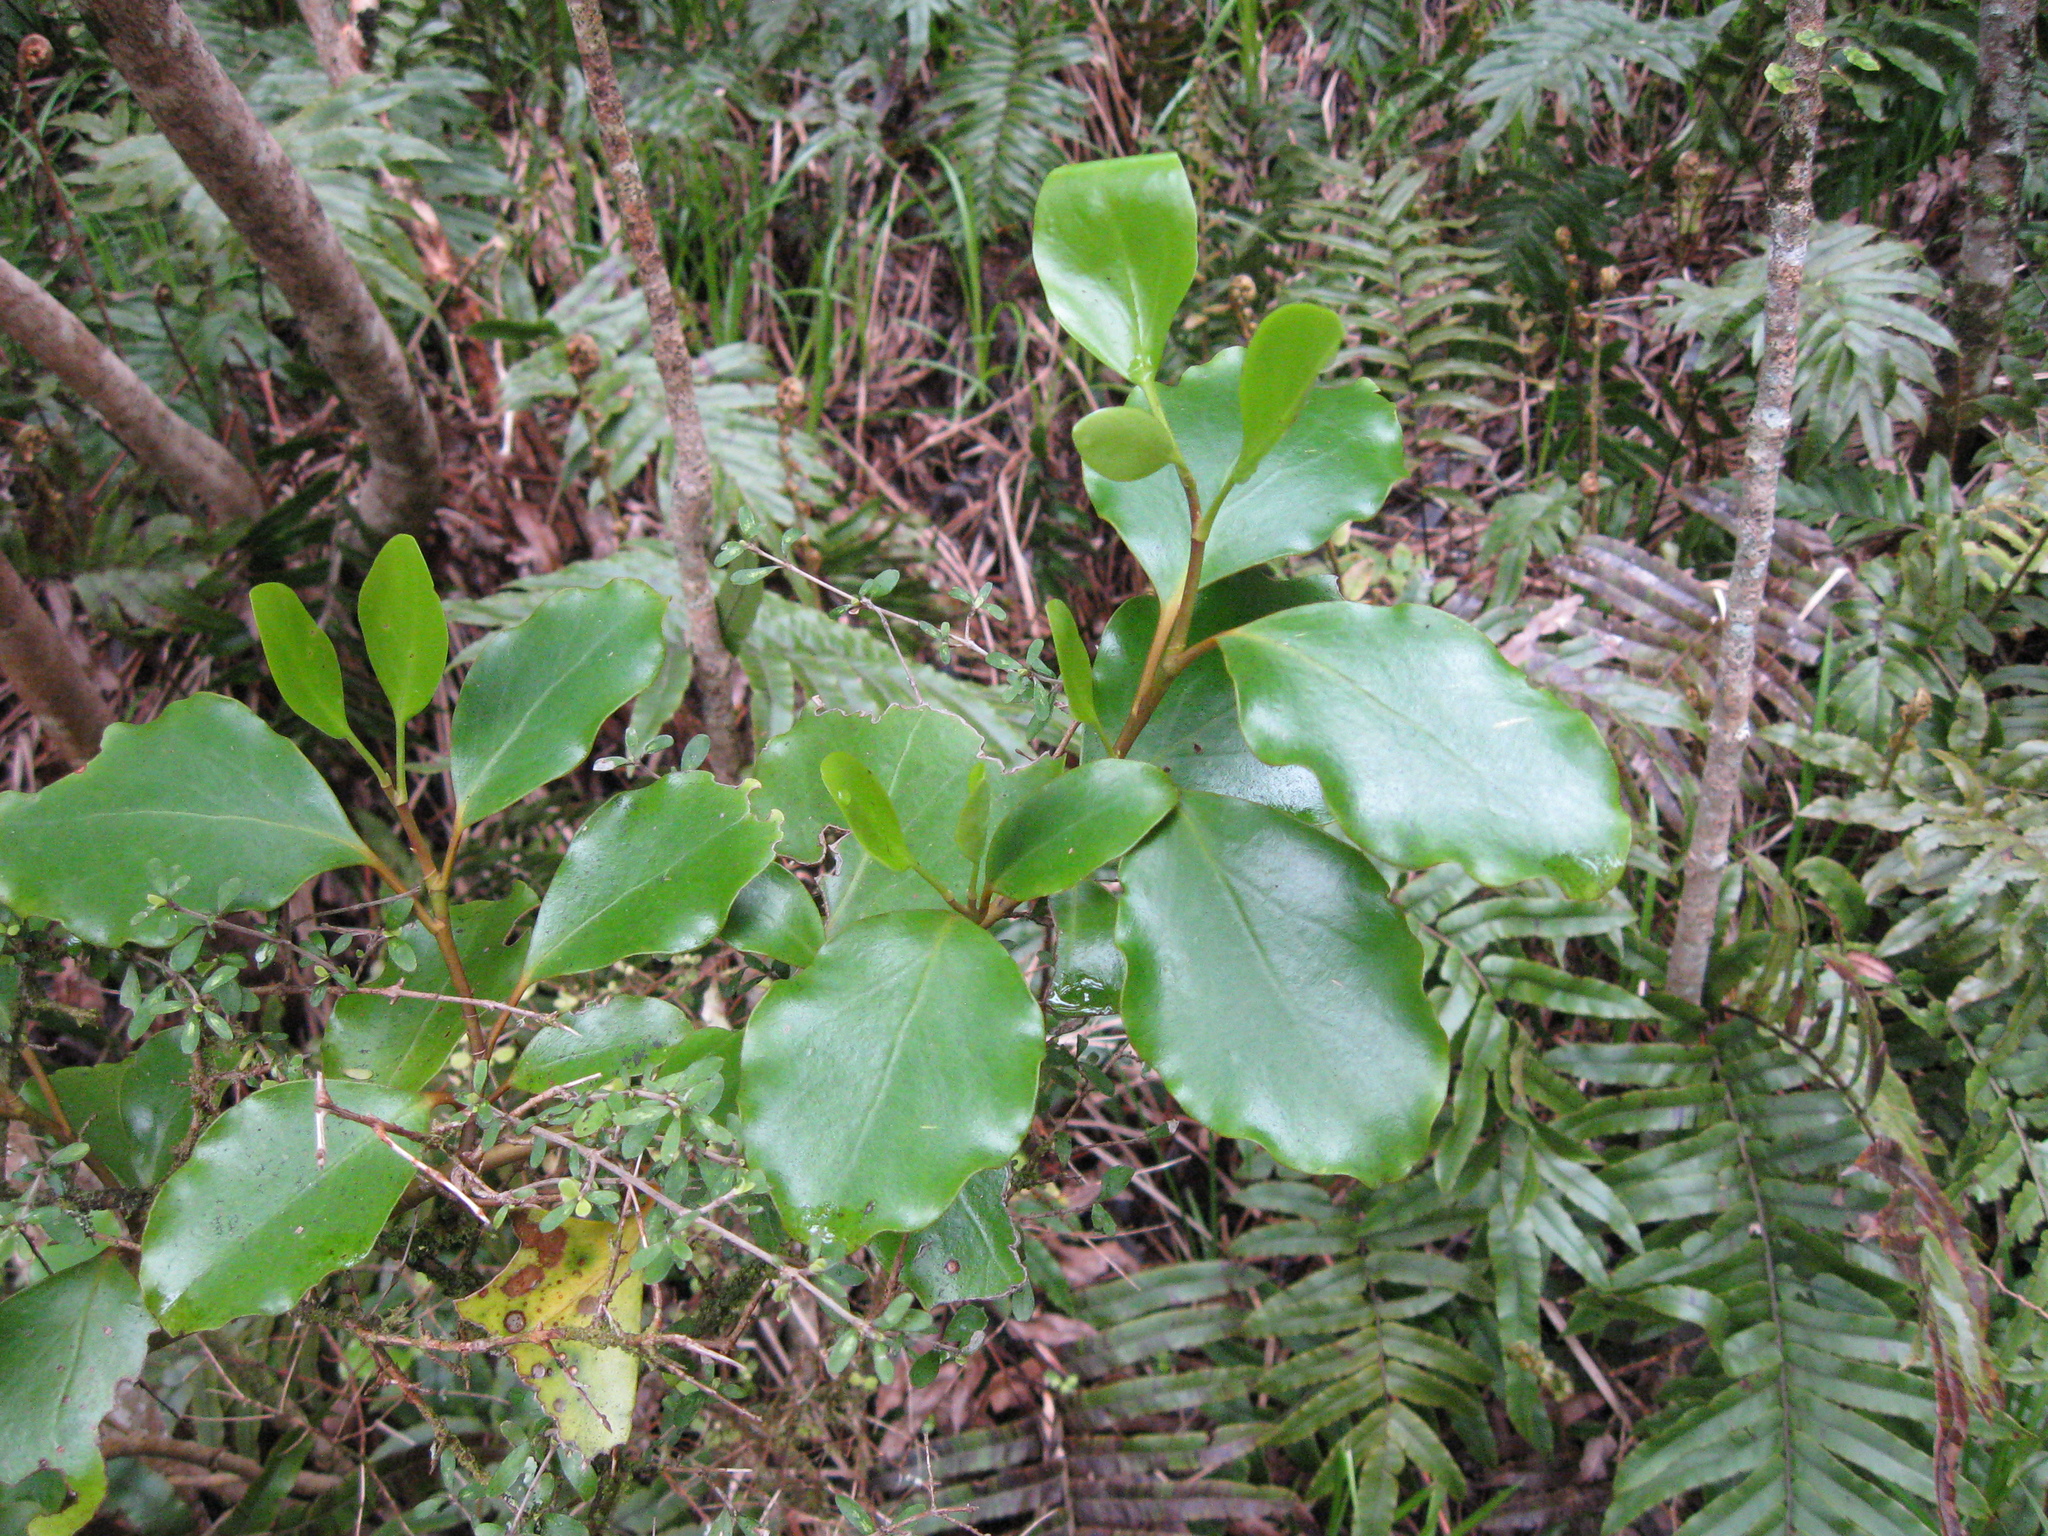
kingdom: Plantae
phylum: Tracheophyta
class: Magnoliopsida
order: Apiales
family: Griseliniaceae
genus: Griselinia
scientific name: Griselinia littoralis
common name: New zealand broadleaf
